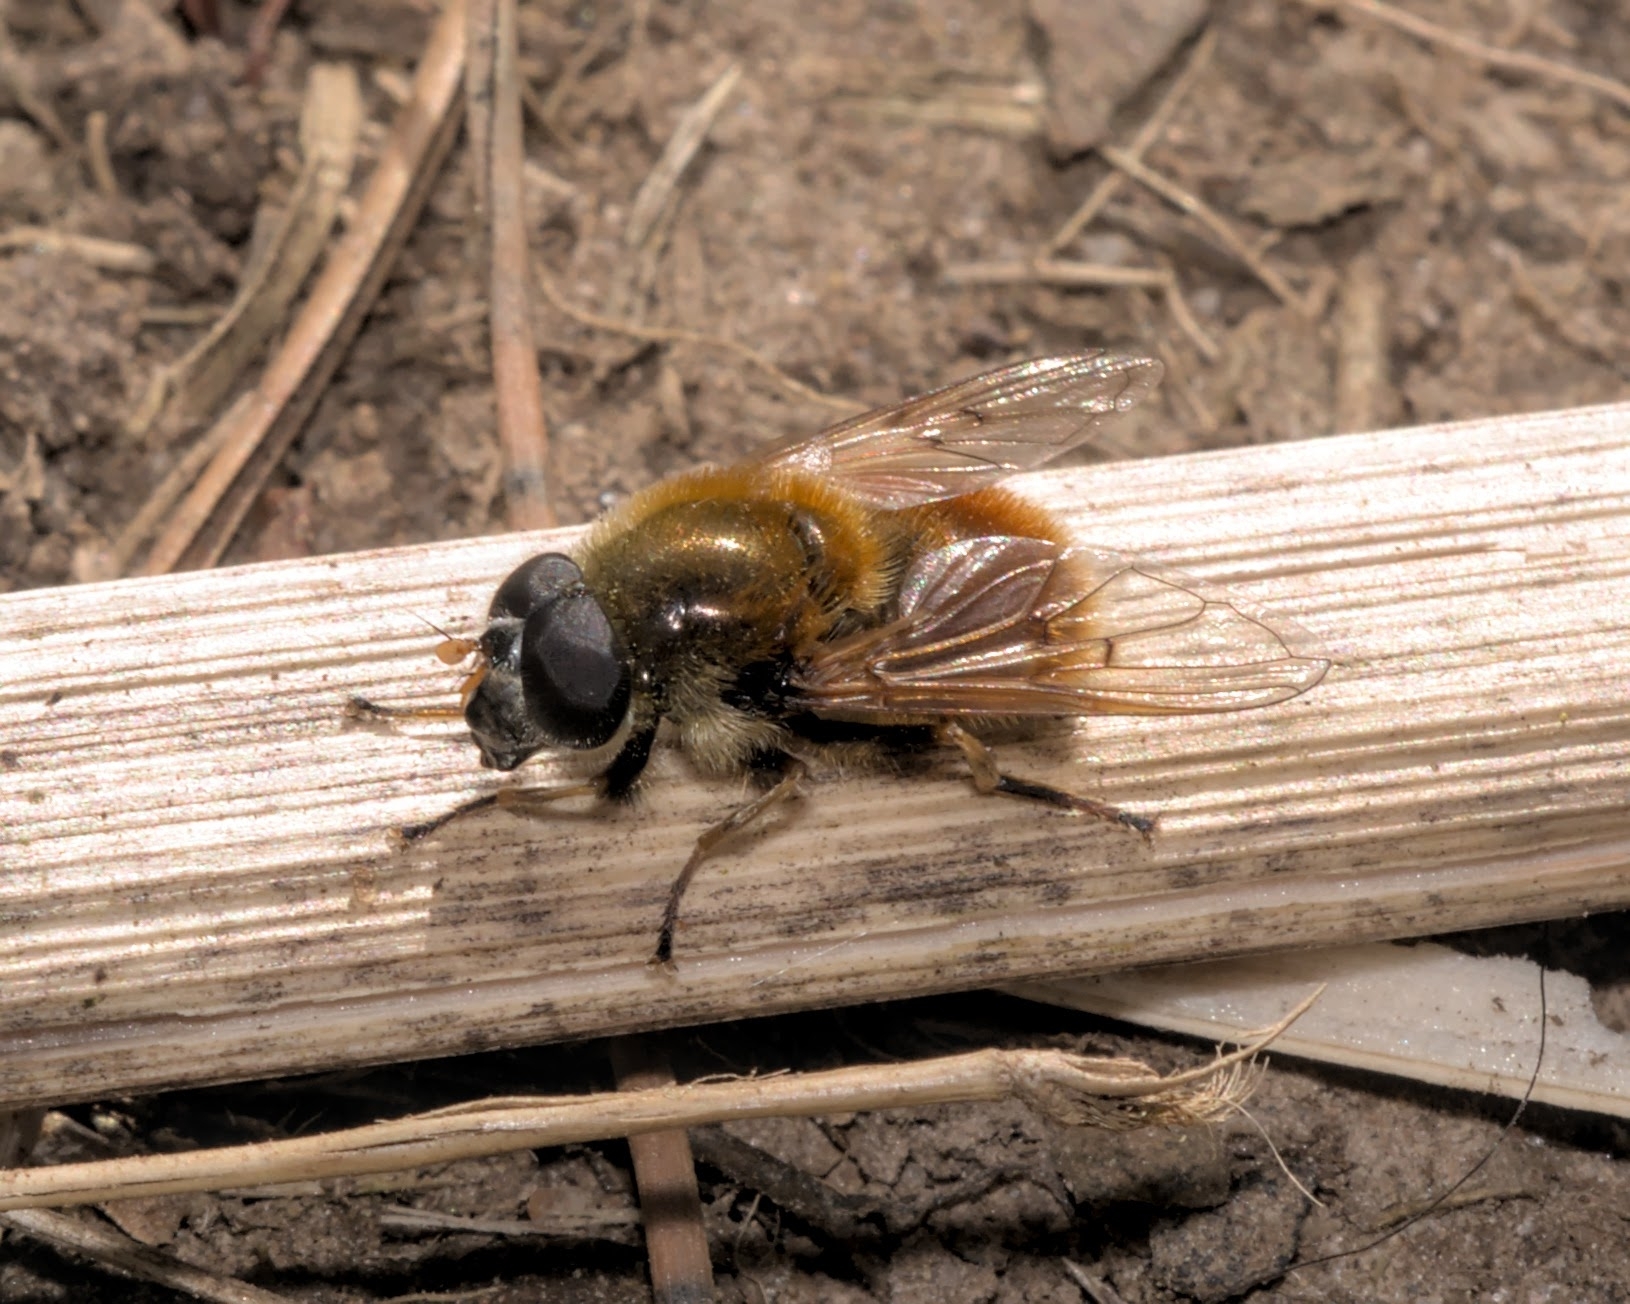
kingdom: Animalia
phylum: Arthropoda
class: Insecta
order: Diptera
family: Syrphidae
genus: Cheilosia
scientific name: Cheilosia chrysocoma
